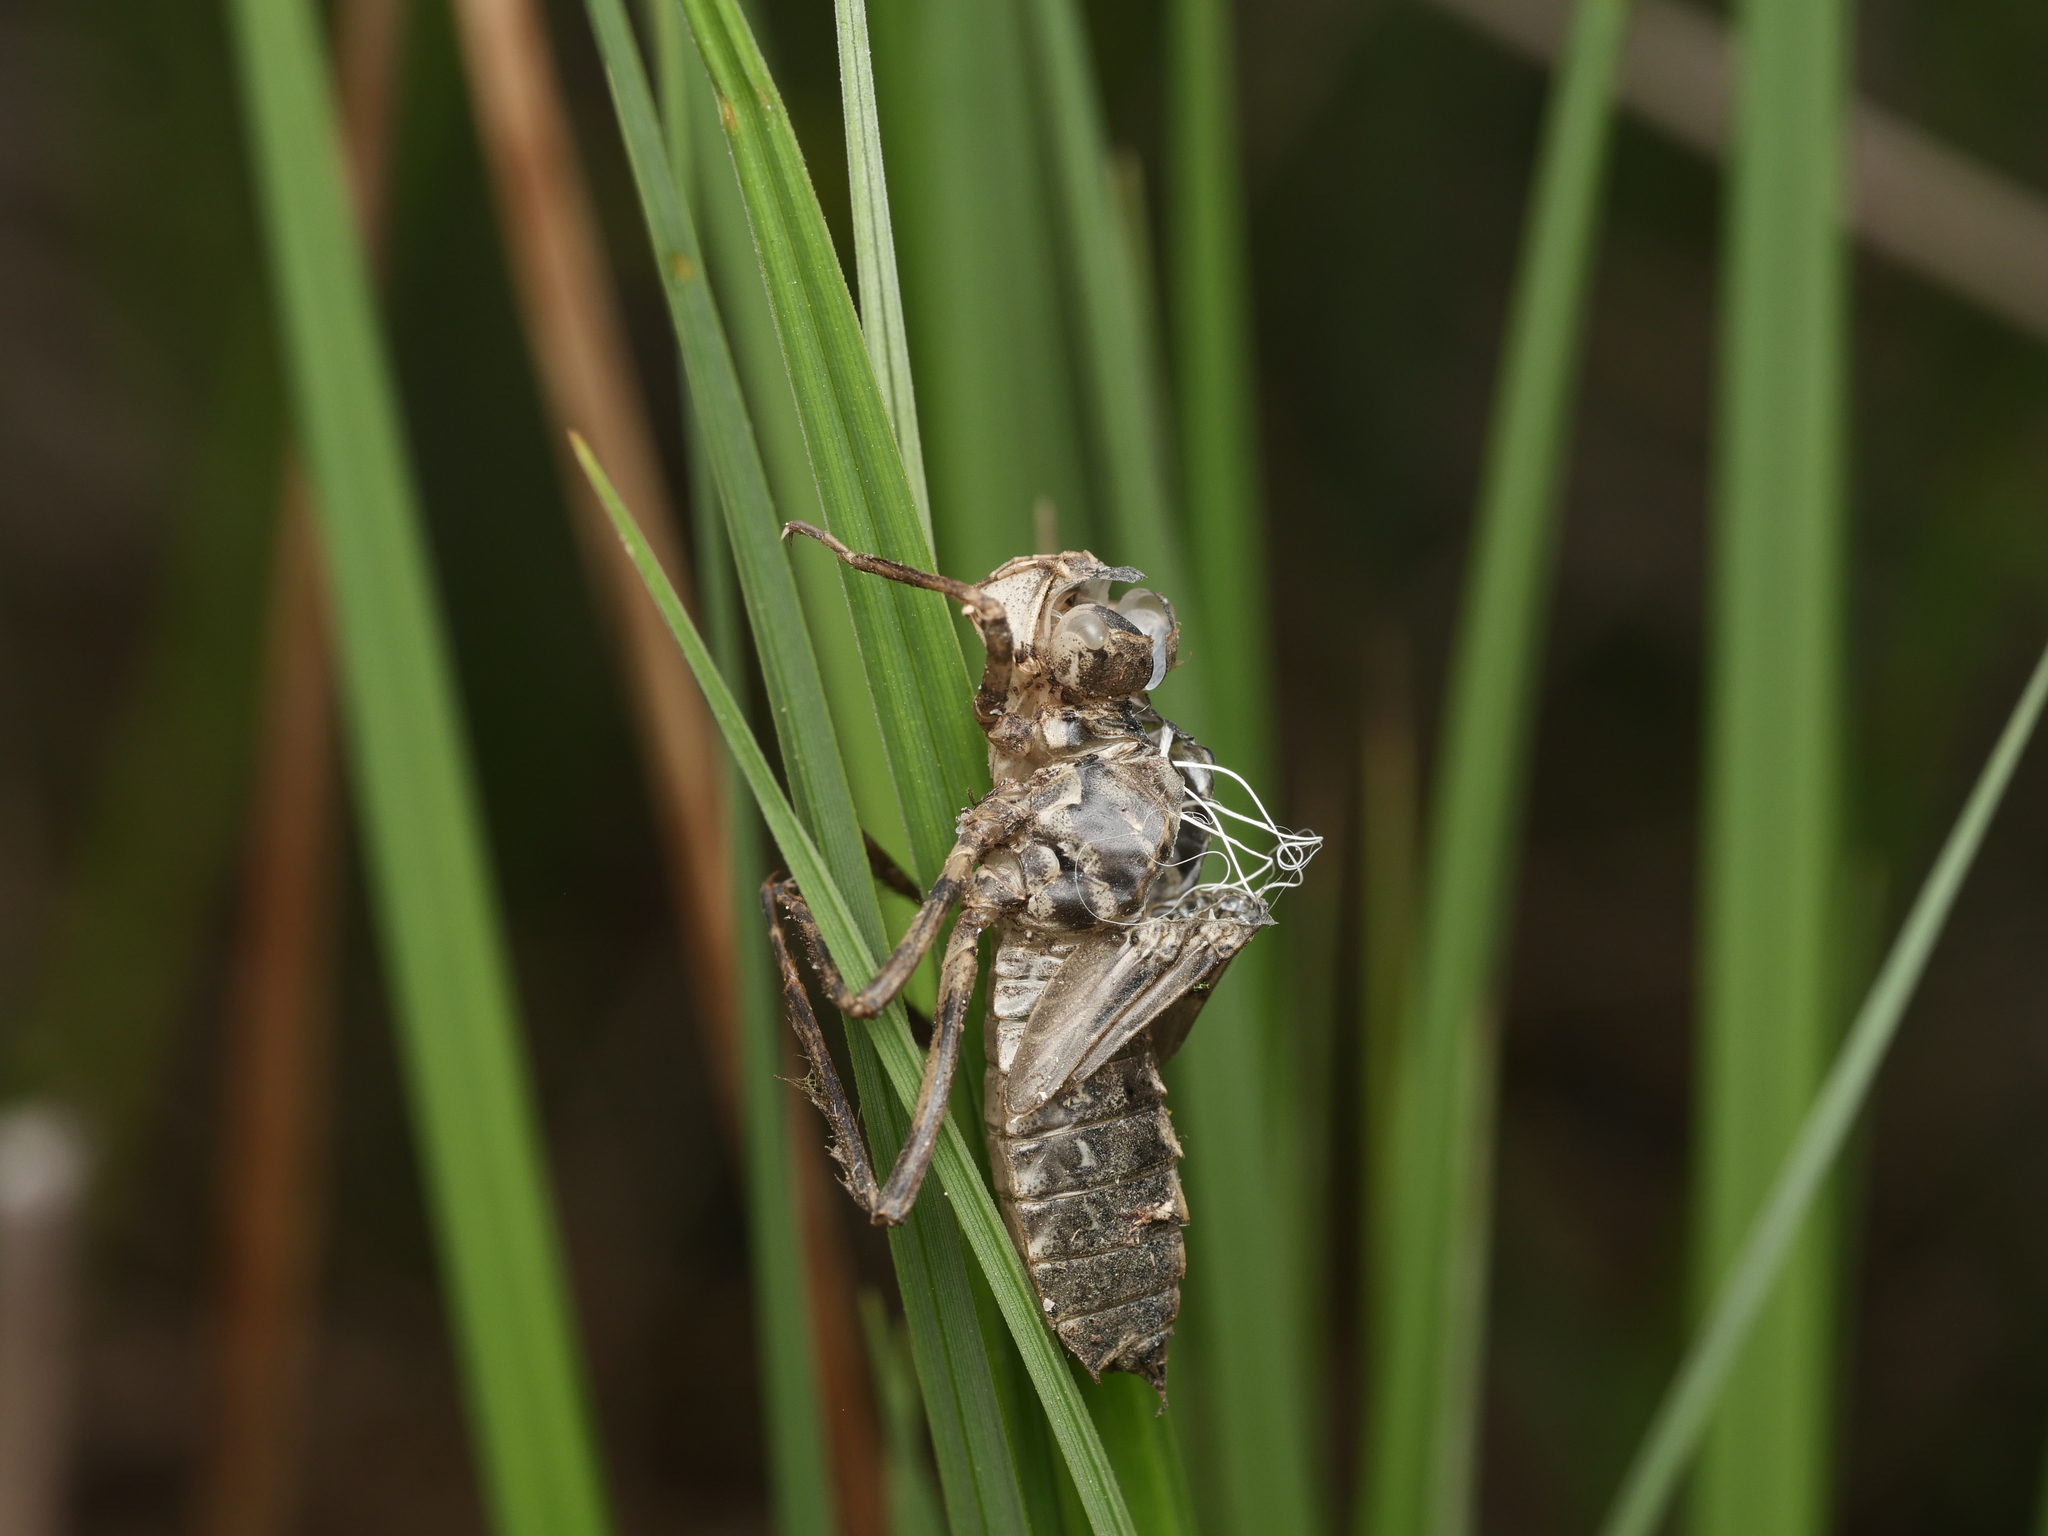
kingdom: Animalia
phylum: Arthropoda
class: Insecta
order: Odonata
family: Corduliidae
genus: Cordulia
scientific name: Cordulia aenea
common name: Downy emerald
